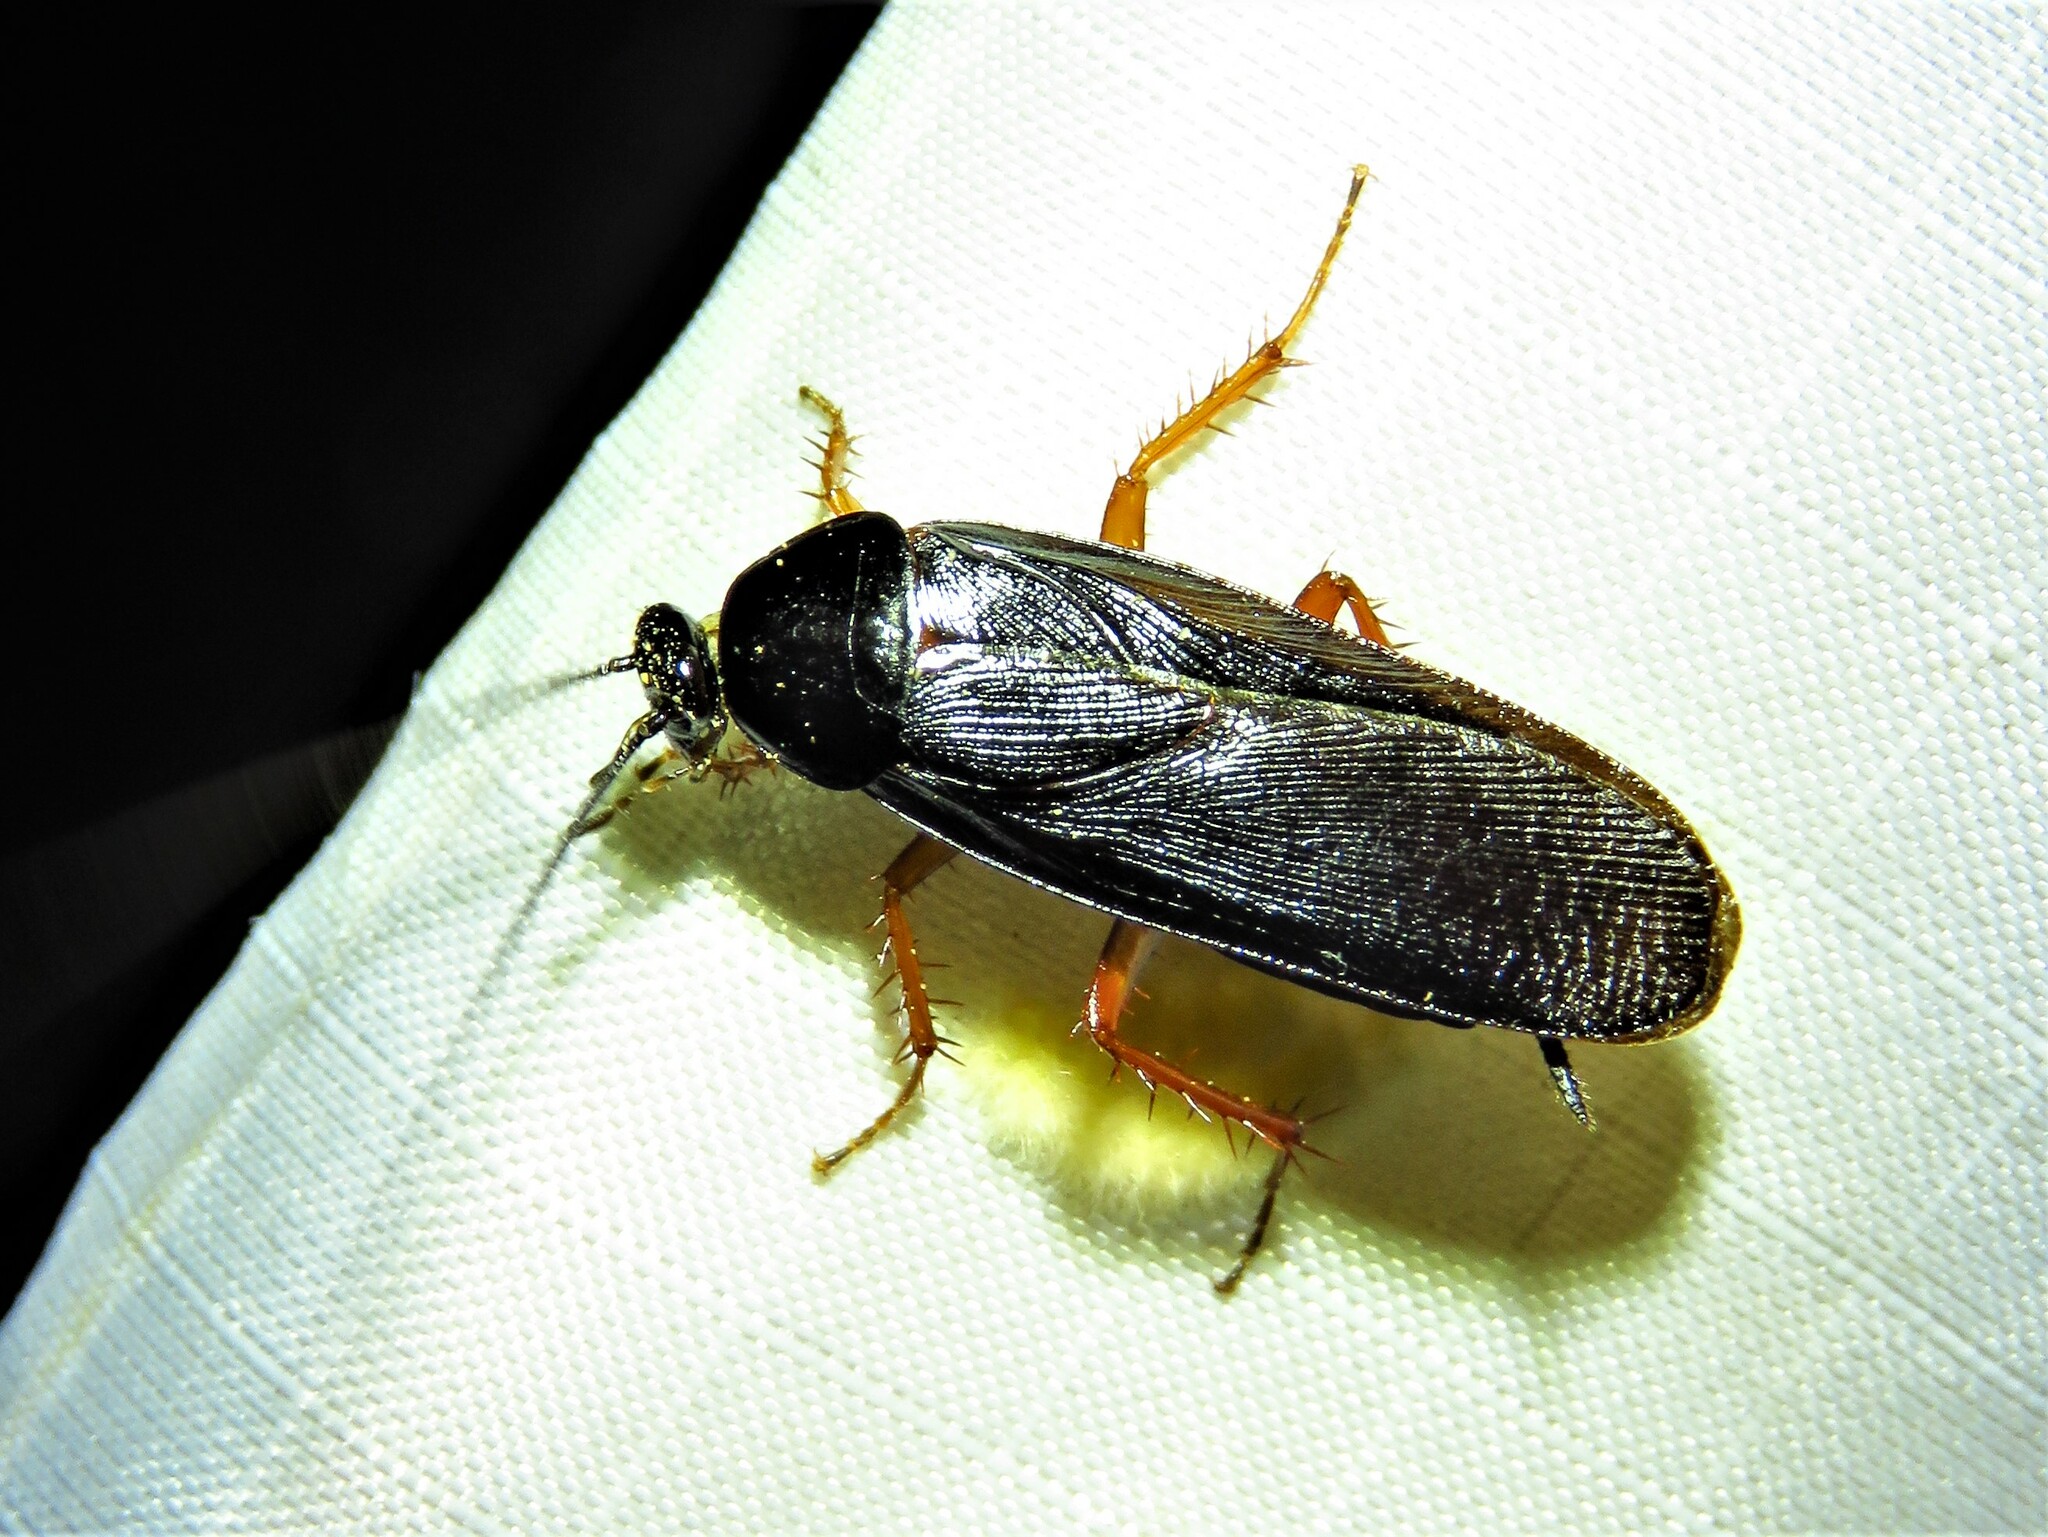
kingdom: Animalia
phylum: Arthropoda
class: Insecta
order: Blattodea
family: Ectobiidae
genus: Ischnoptera
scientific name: Ischnoptera deropeltiformis
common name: Dark wood cockroach
